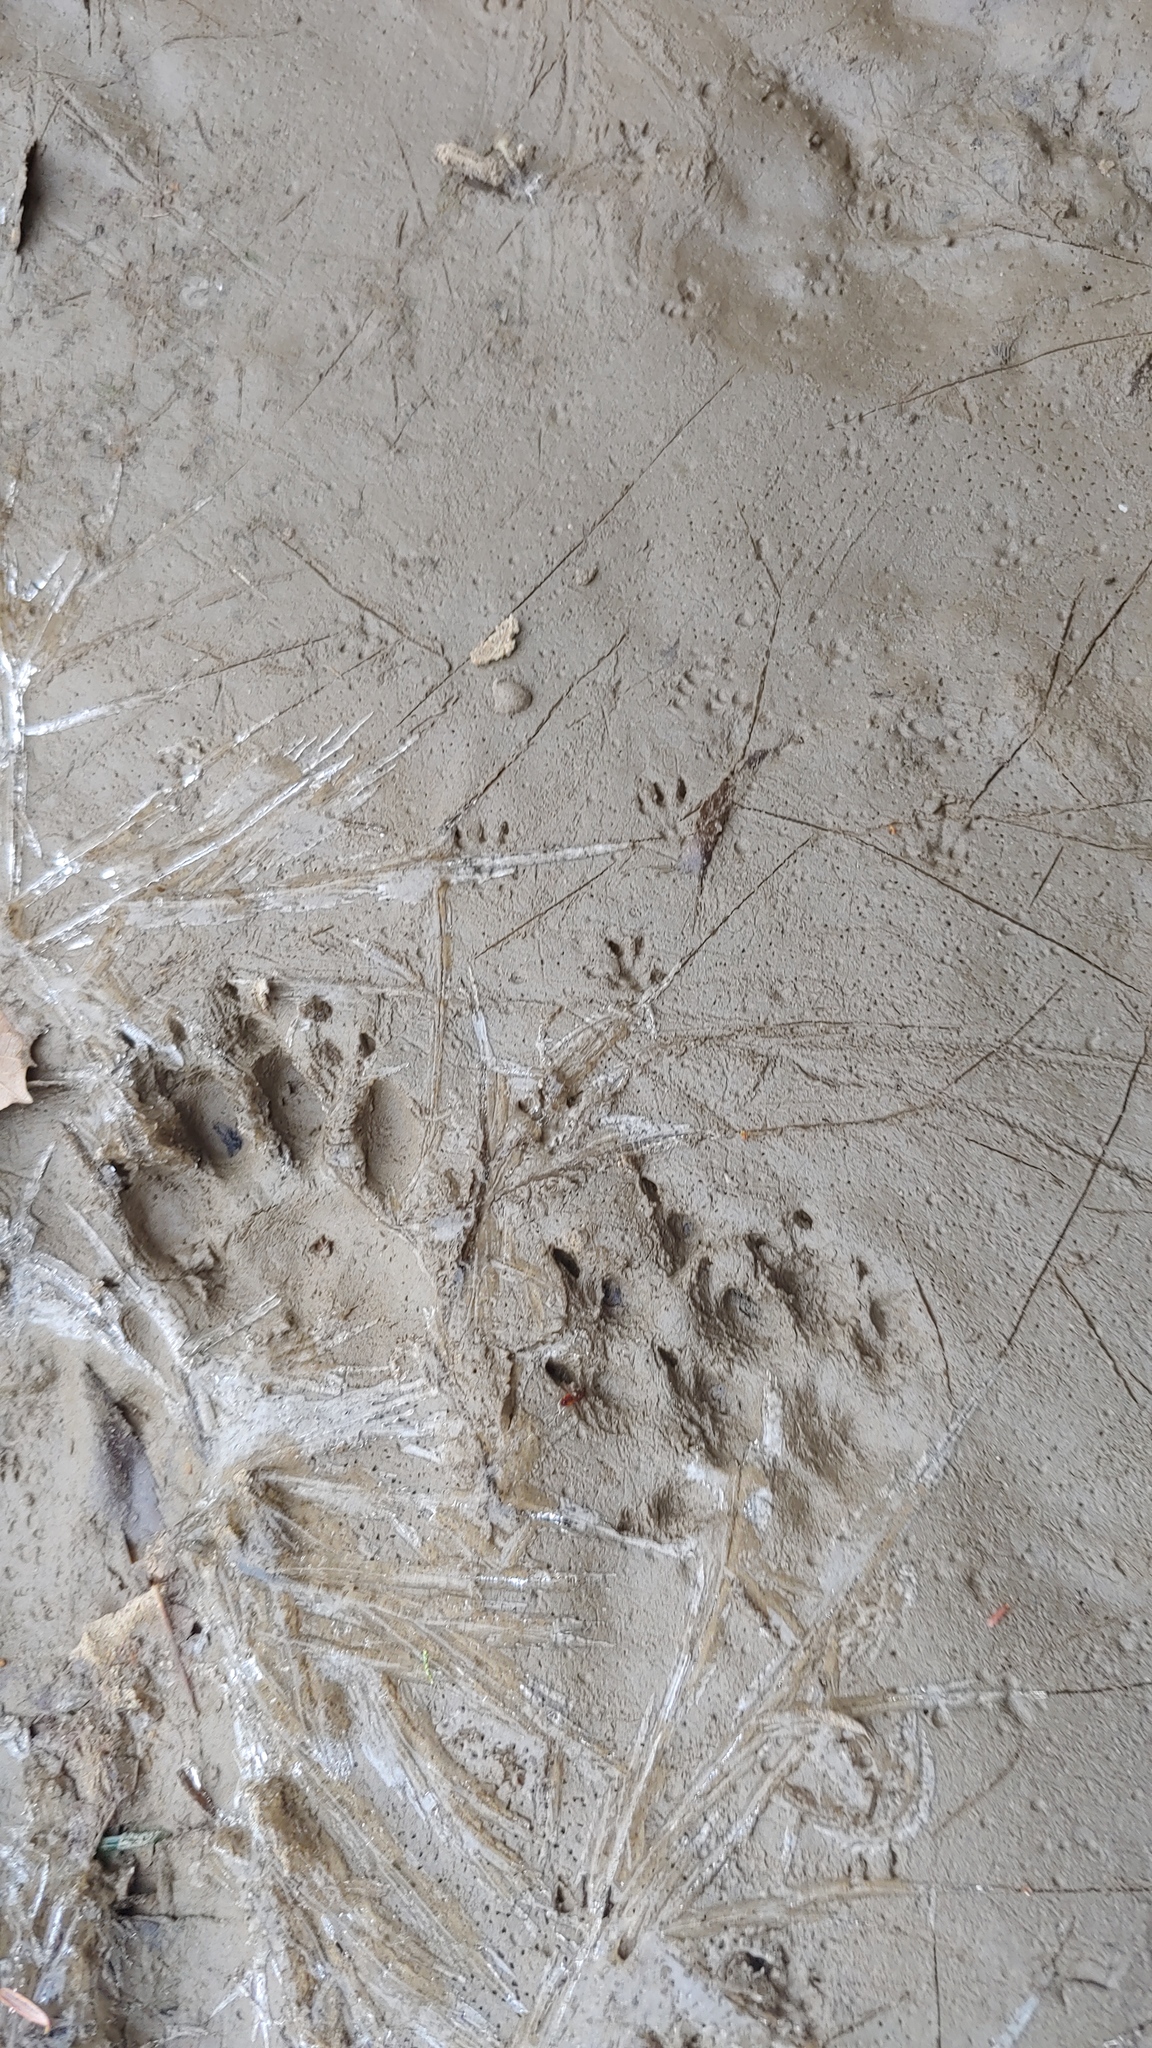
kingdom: Animalia
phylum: Chordata
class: Mammalia
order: Carnivora
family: Mustelidae
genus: Mustela
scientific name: Mustela
